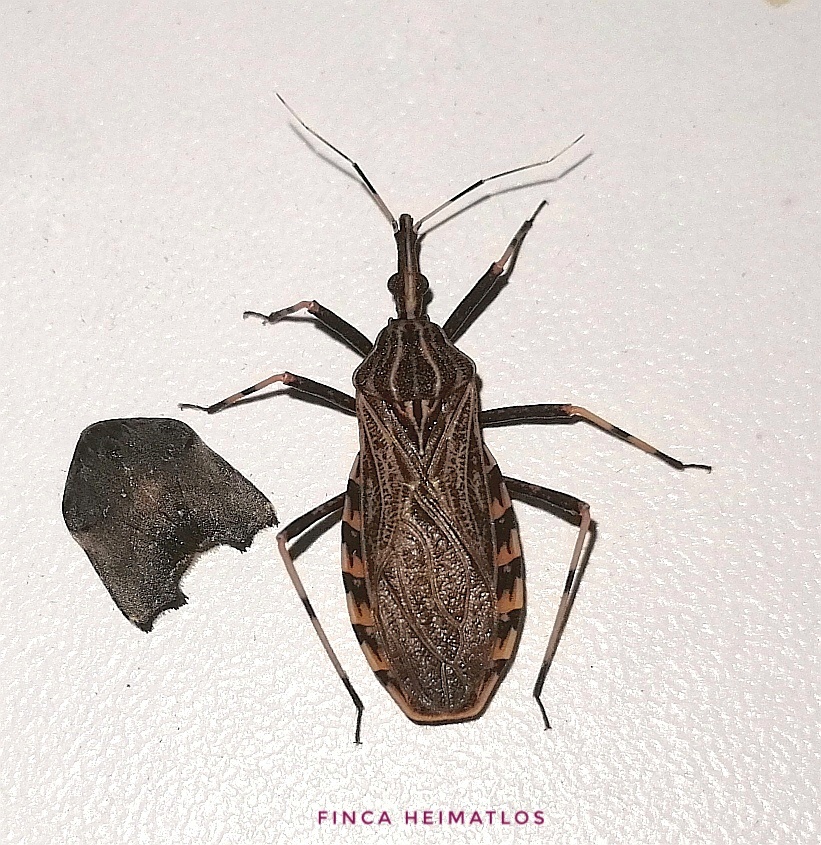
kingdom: Animalia
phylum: Arthropoda
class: Insecta
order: Hemiptera
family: Reduviidae
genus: Rhodnius
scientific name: Rhodnius pictipes
